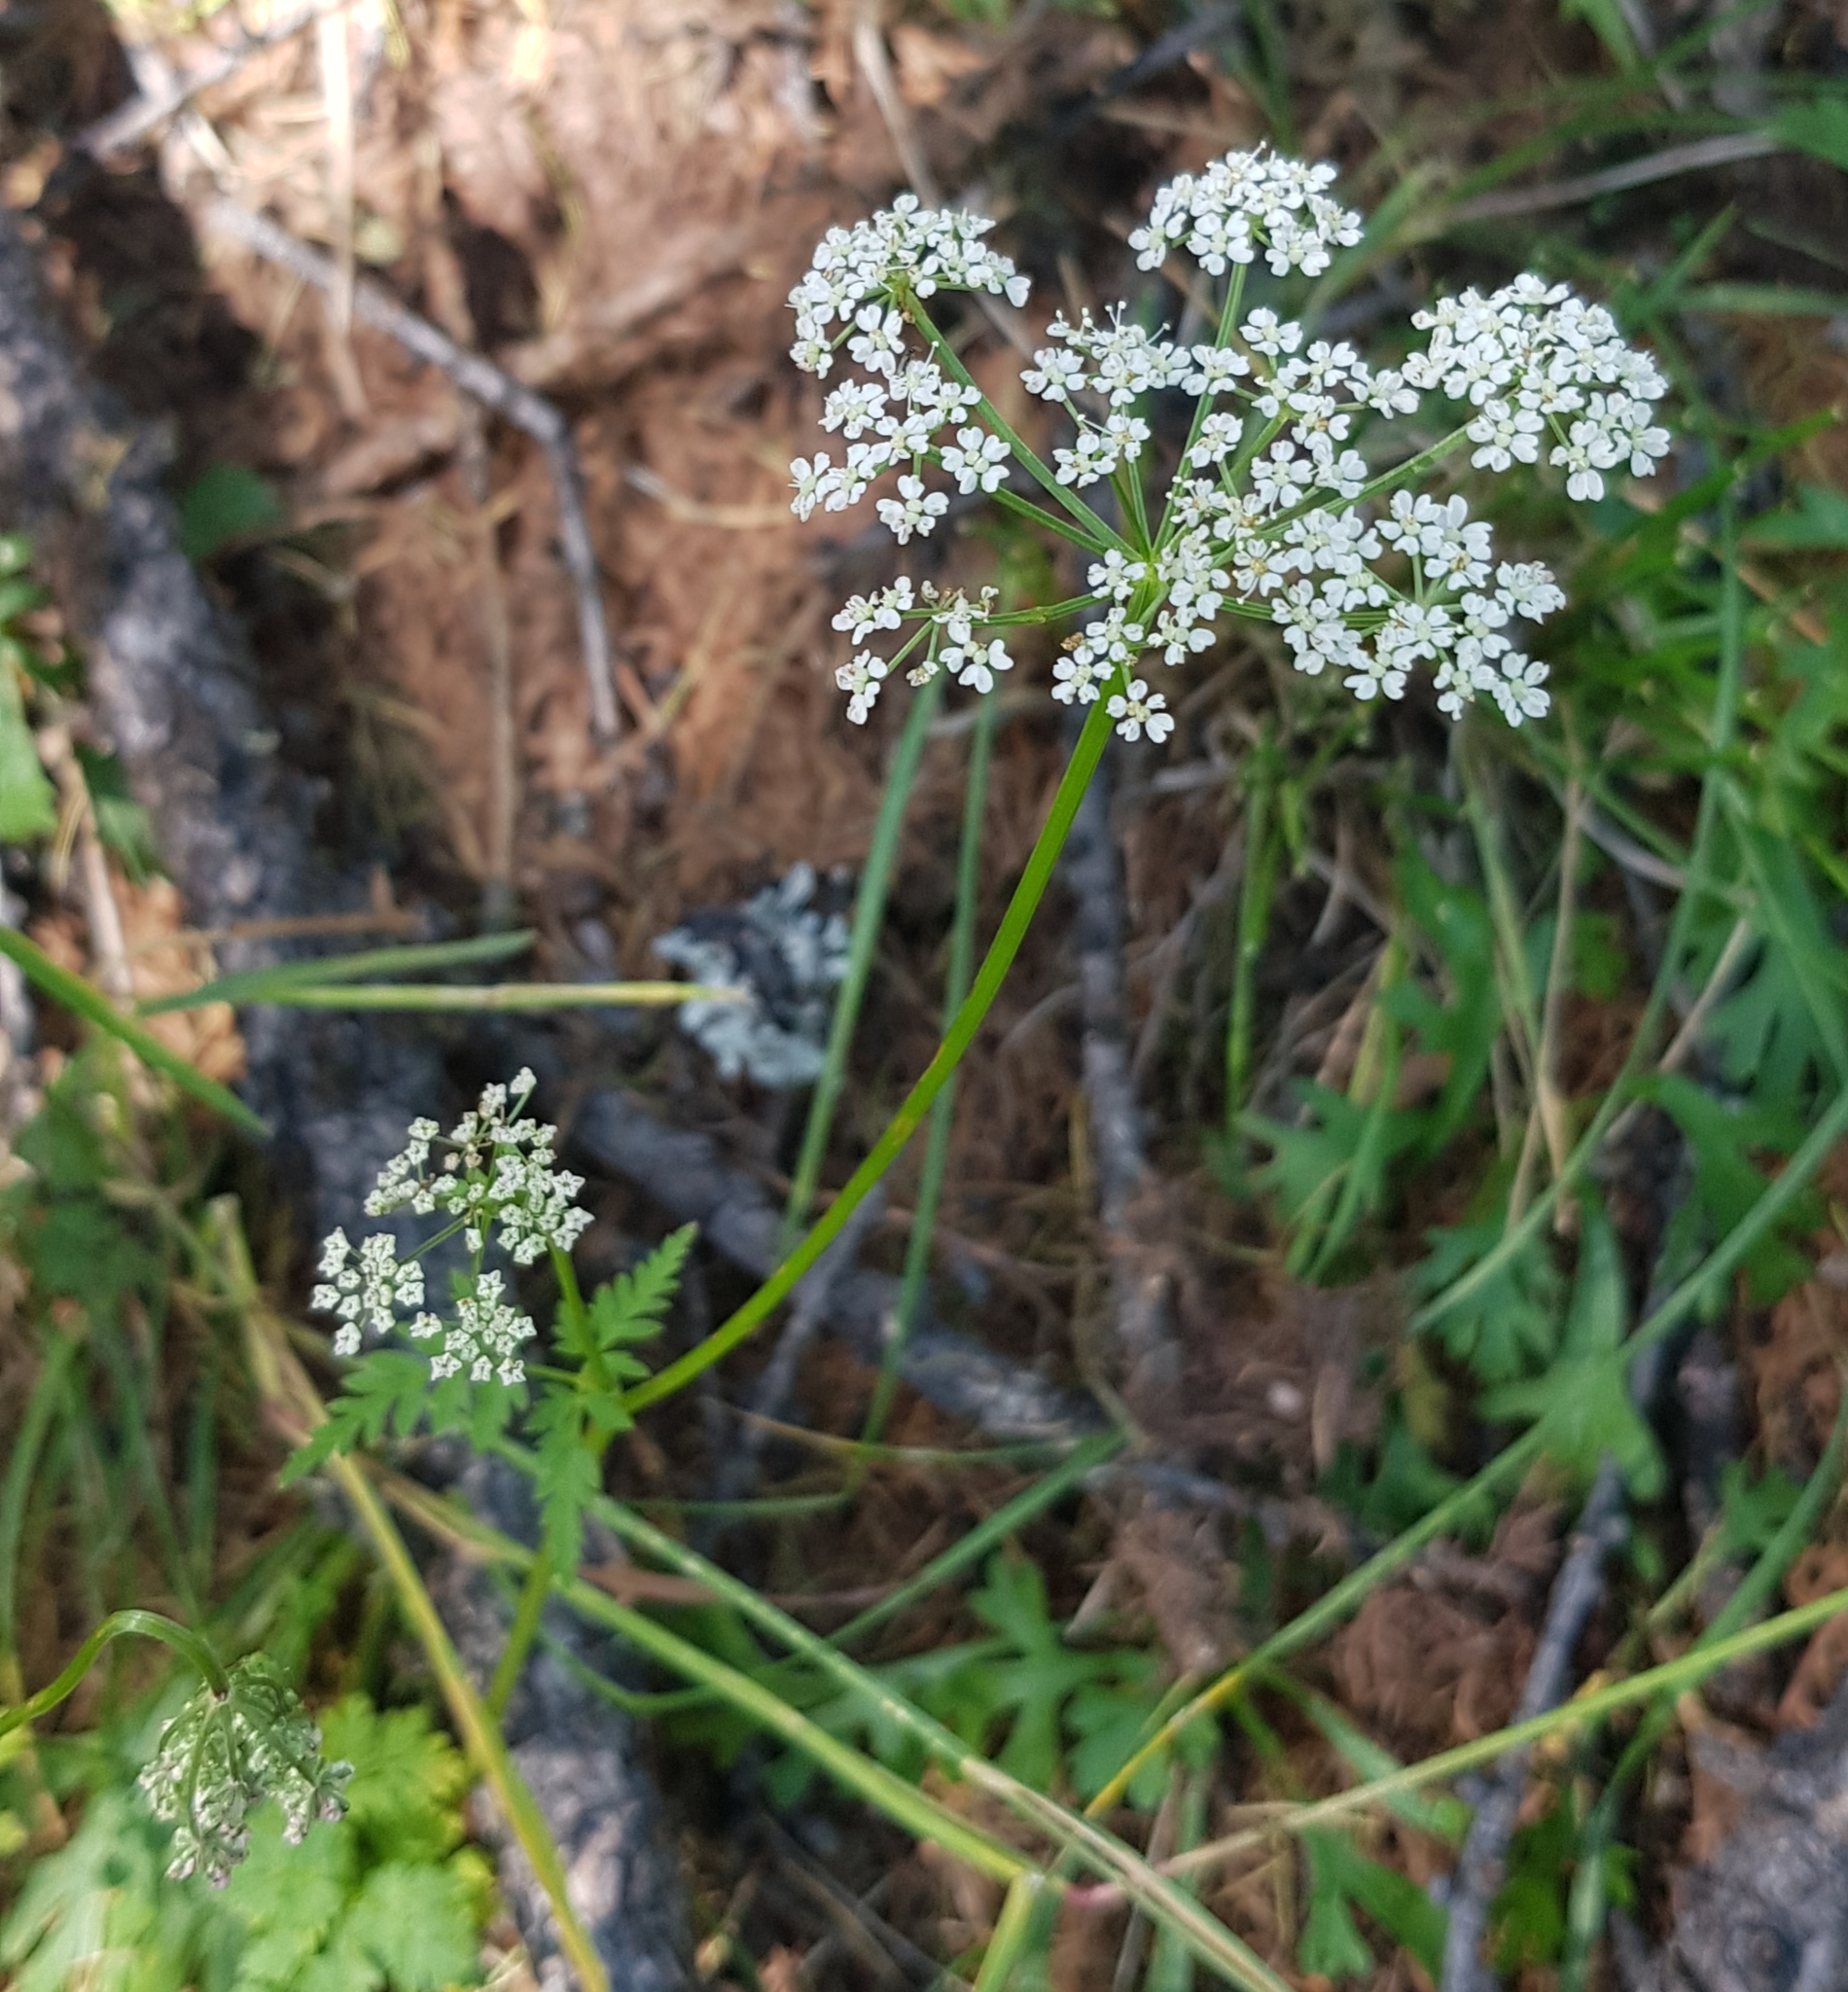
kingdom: Plantae
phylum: Tracheophyta
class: Magnoliopsida
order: Apiales
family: Apiaceae
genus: Aegopodium
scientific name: Aegopodium alpestre
